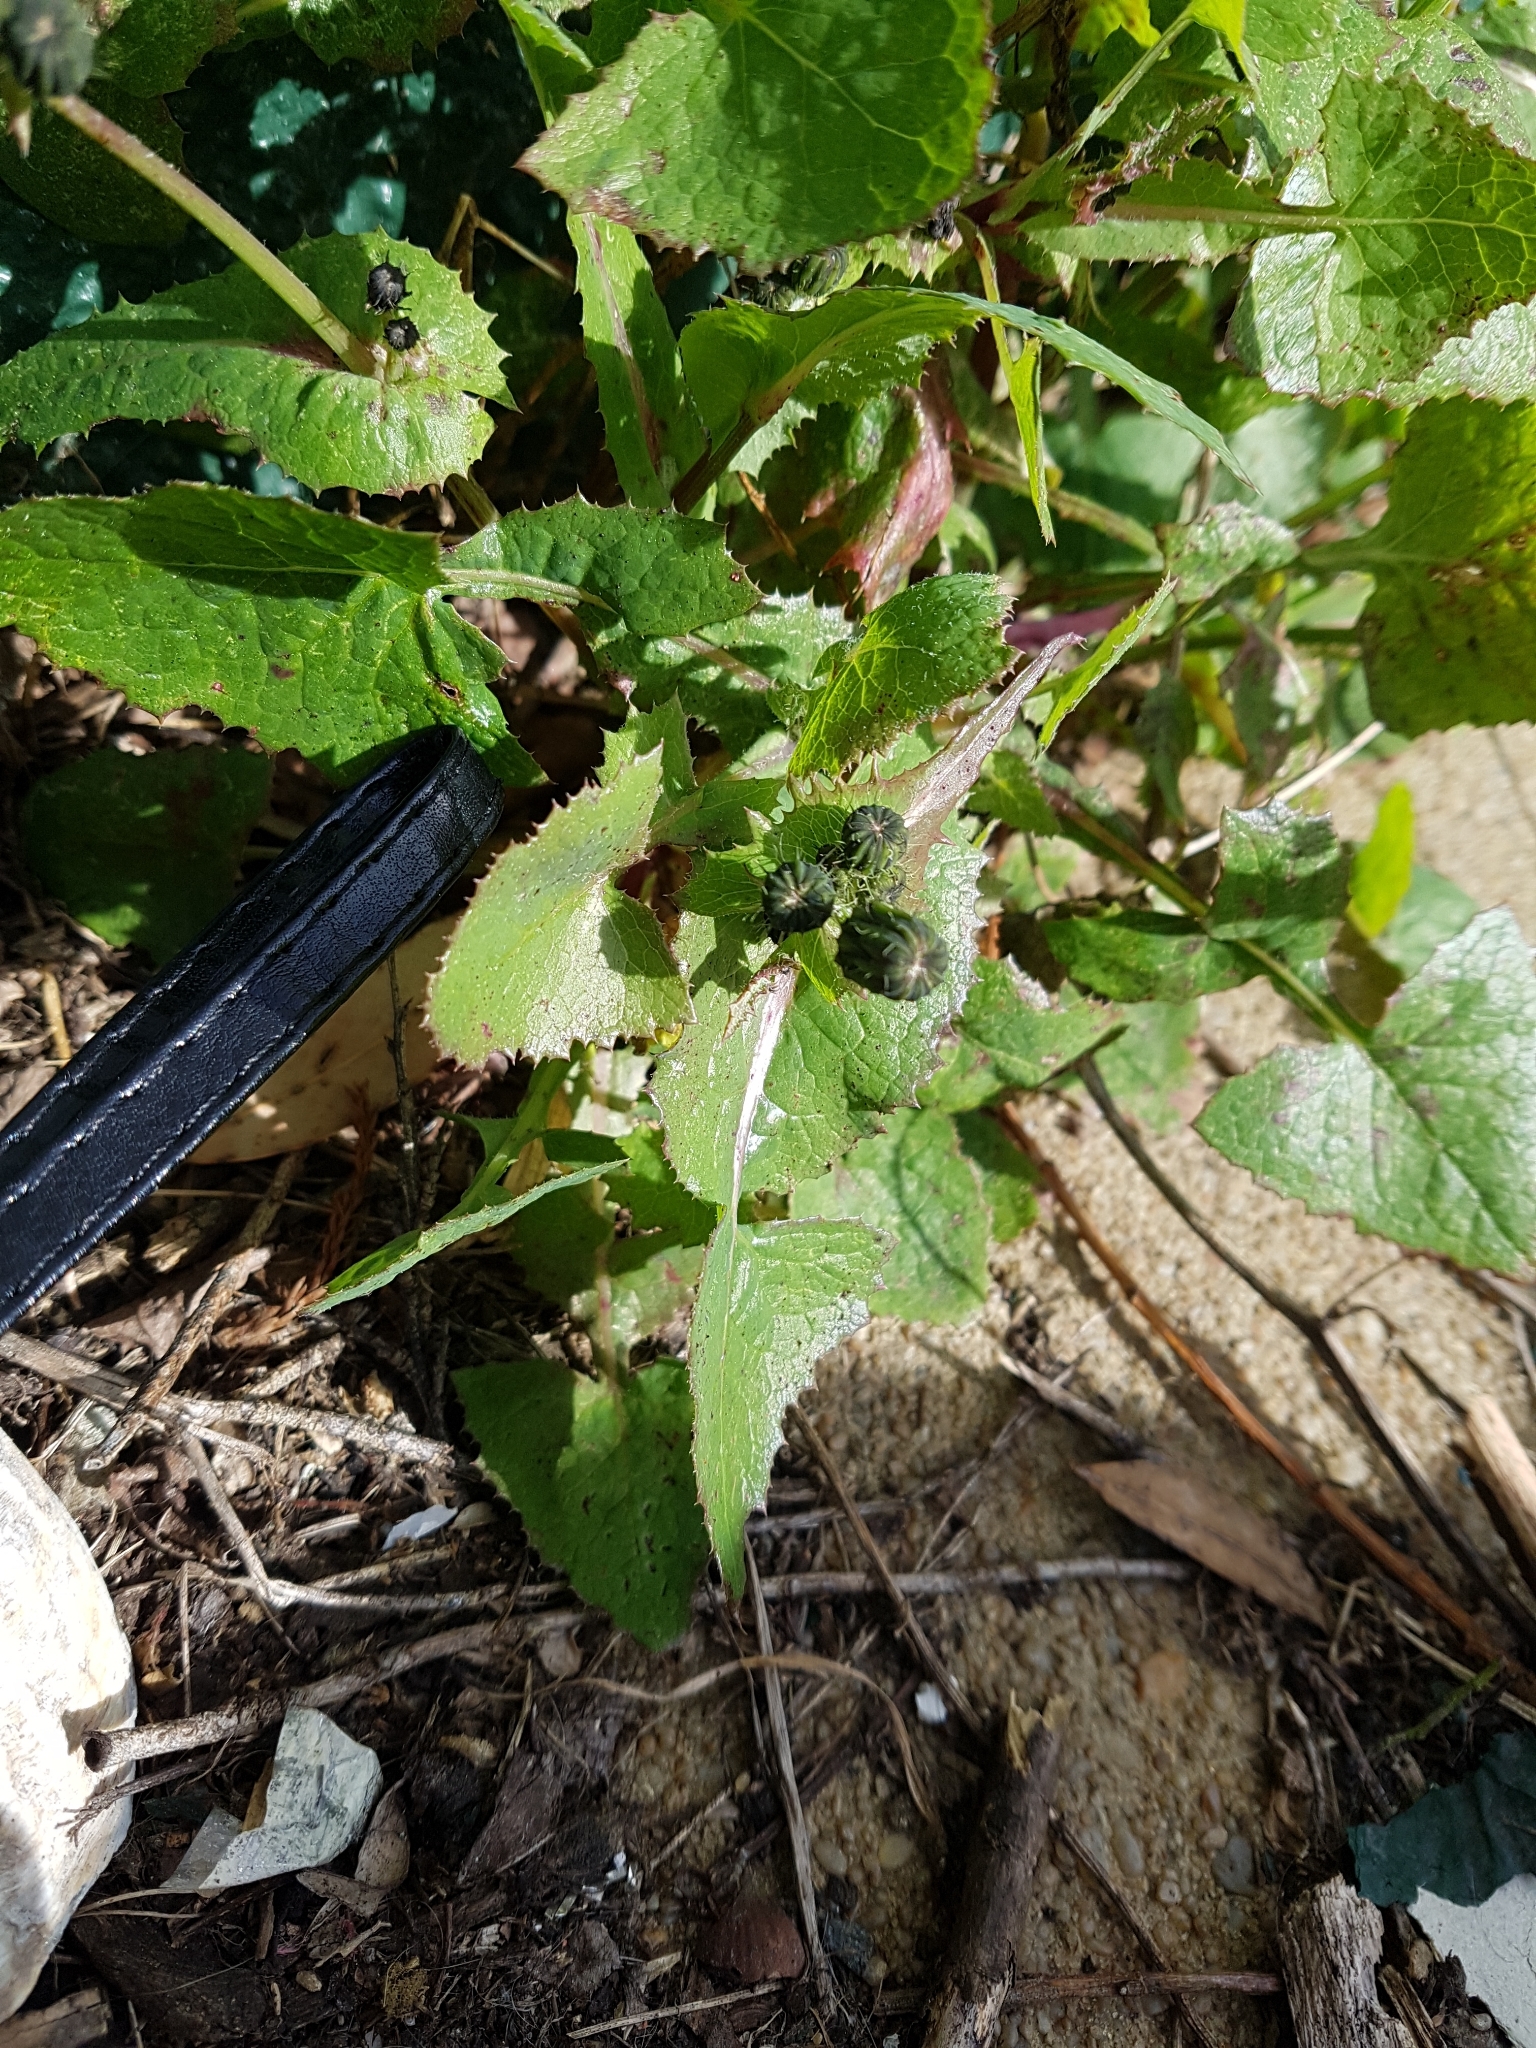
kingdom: Plantae
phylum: Tracheophyta
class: Magnoliopsida
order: Asterales
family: Asteraceae
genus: Sonchus
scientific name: Sonchus oleraceus
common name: Common sowthistle
